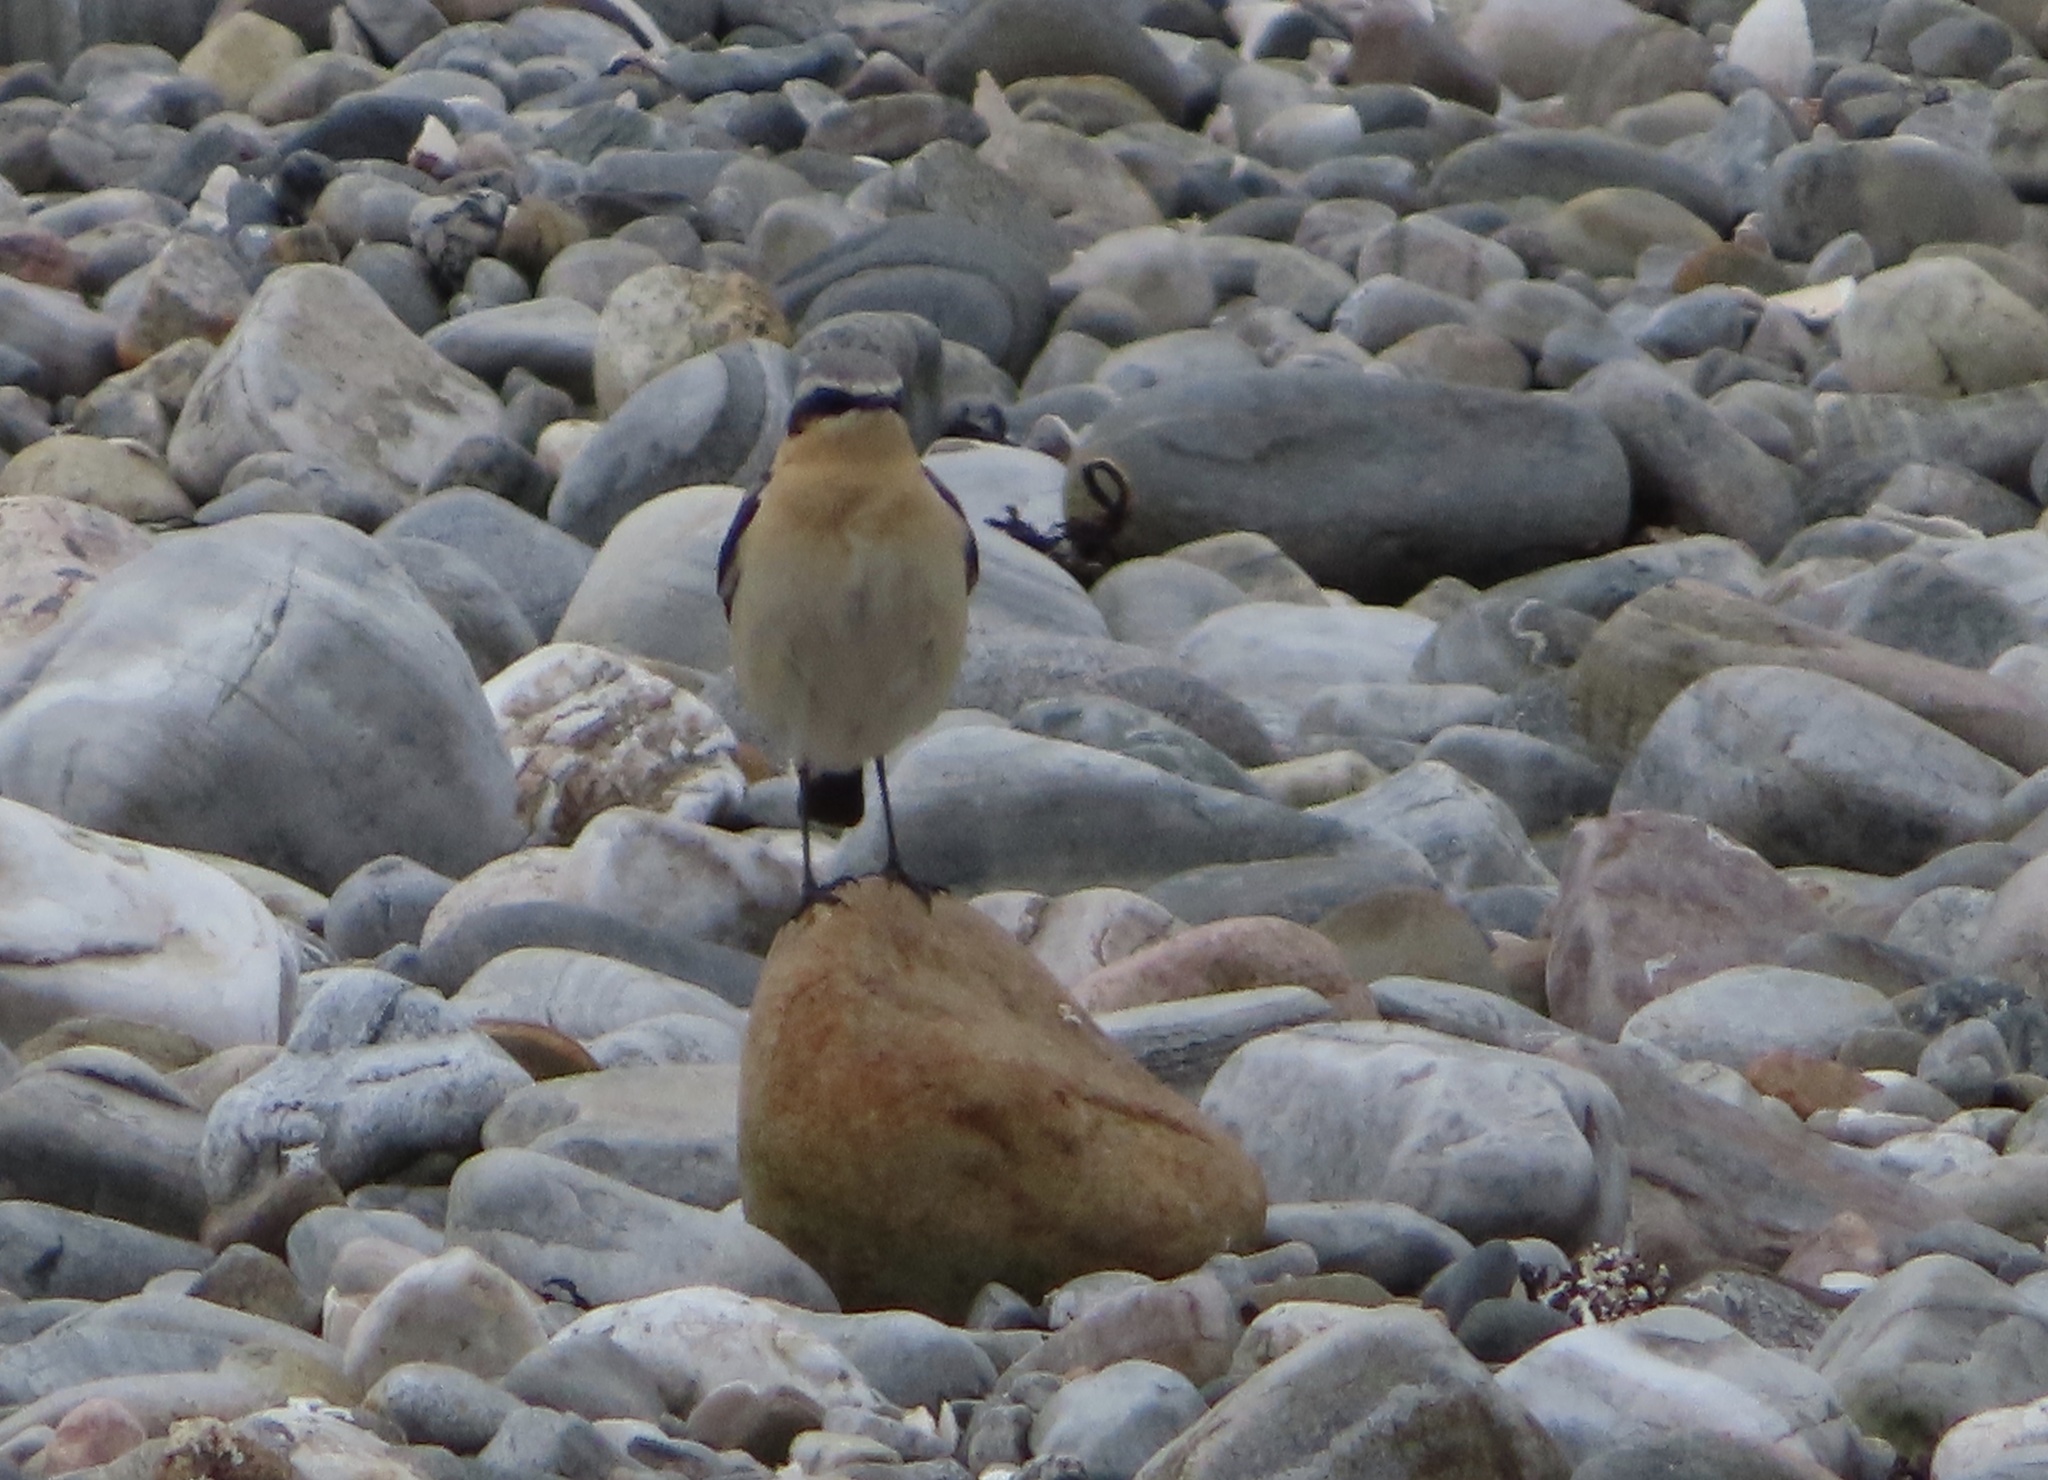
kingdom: Animalia
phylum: Chordata
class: Aves
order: Passeriformes
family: Muscicapidae
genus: Oenanthe
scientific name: Oenanthe oenanthe
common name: Northern wheatear
